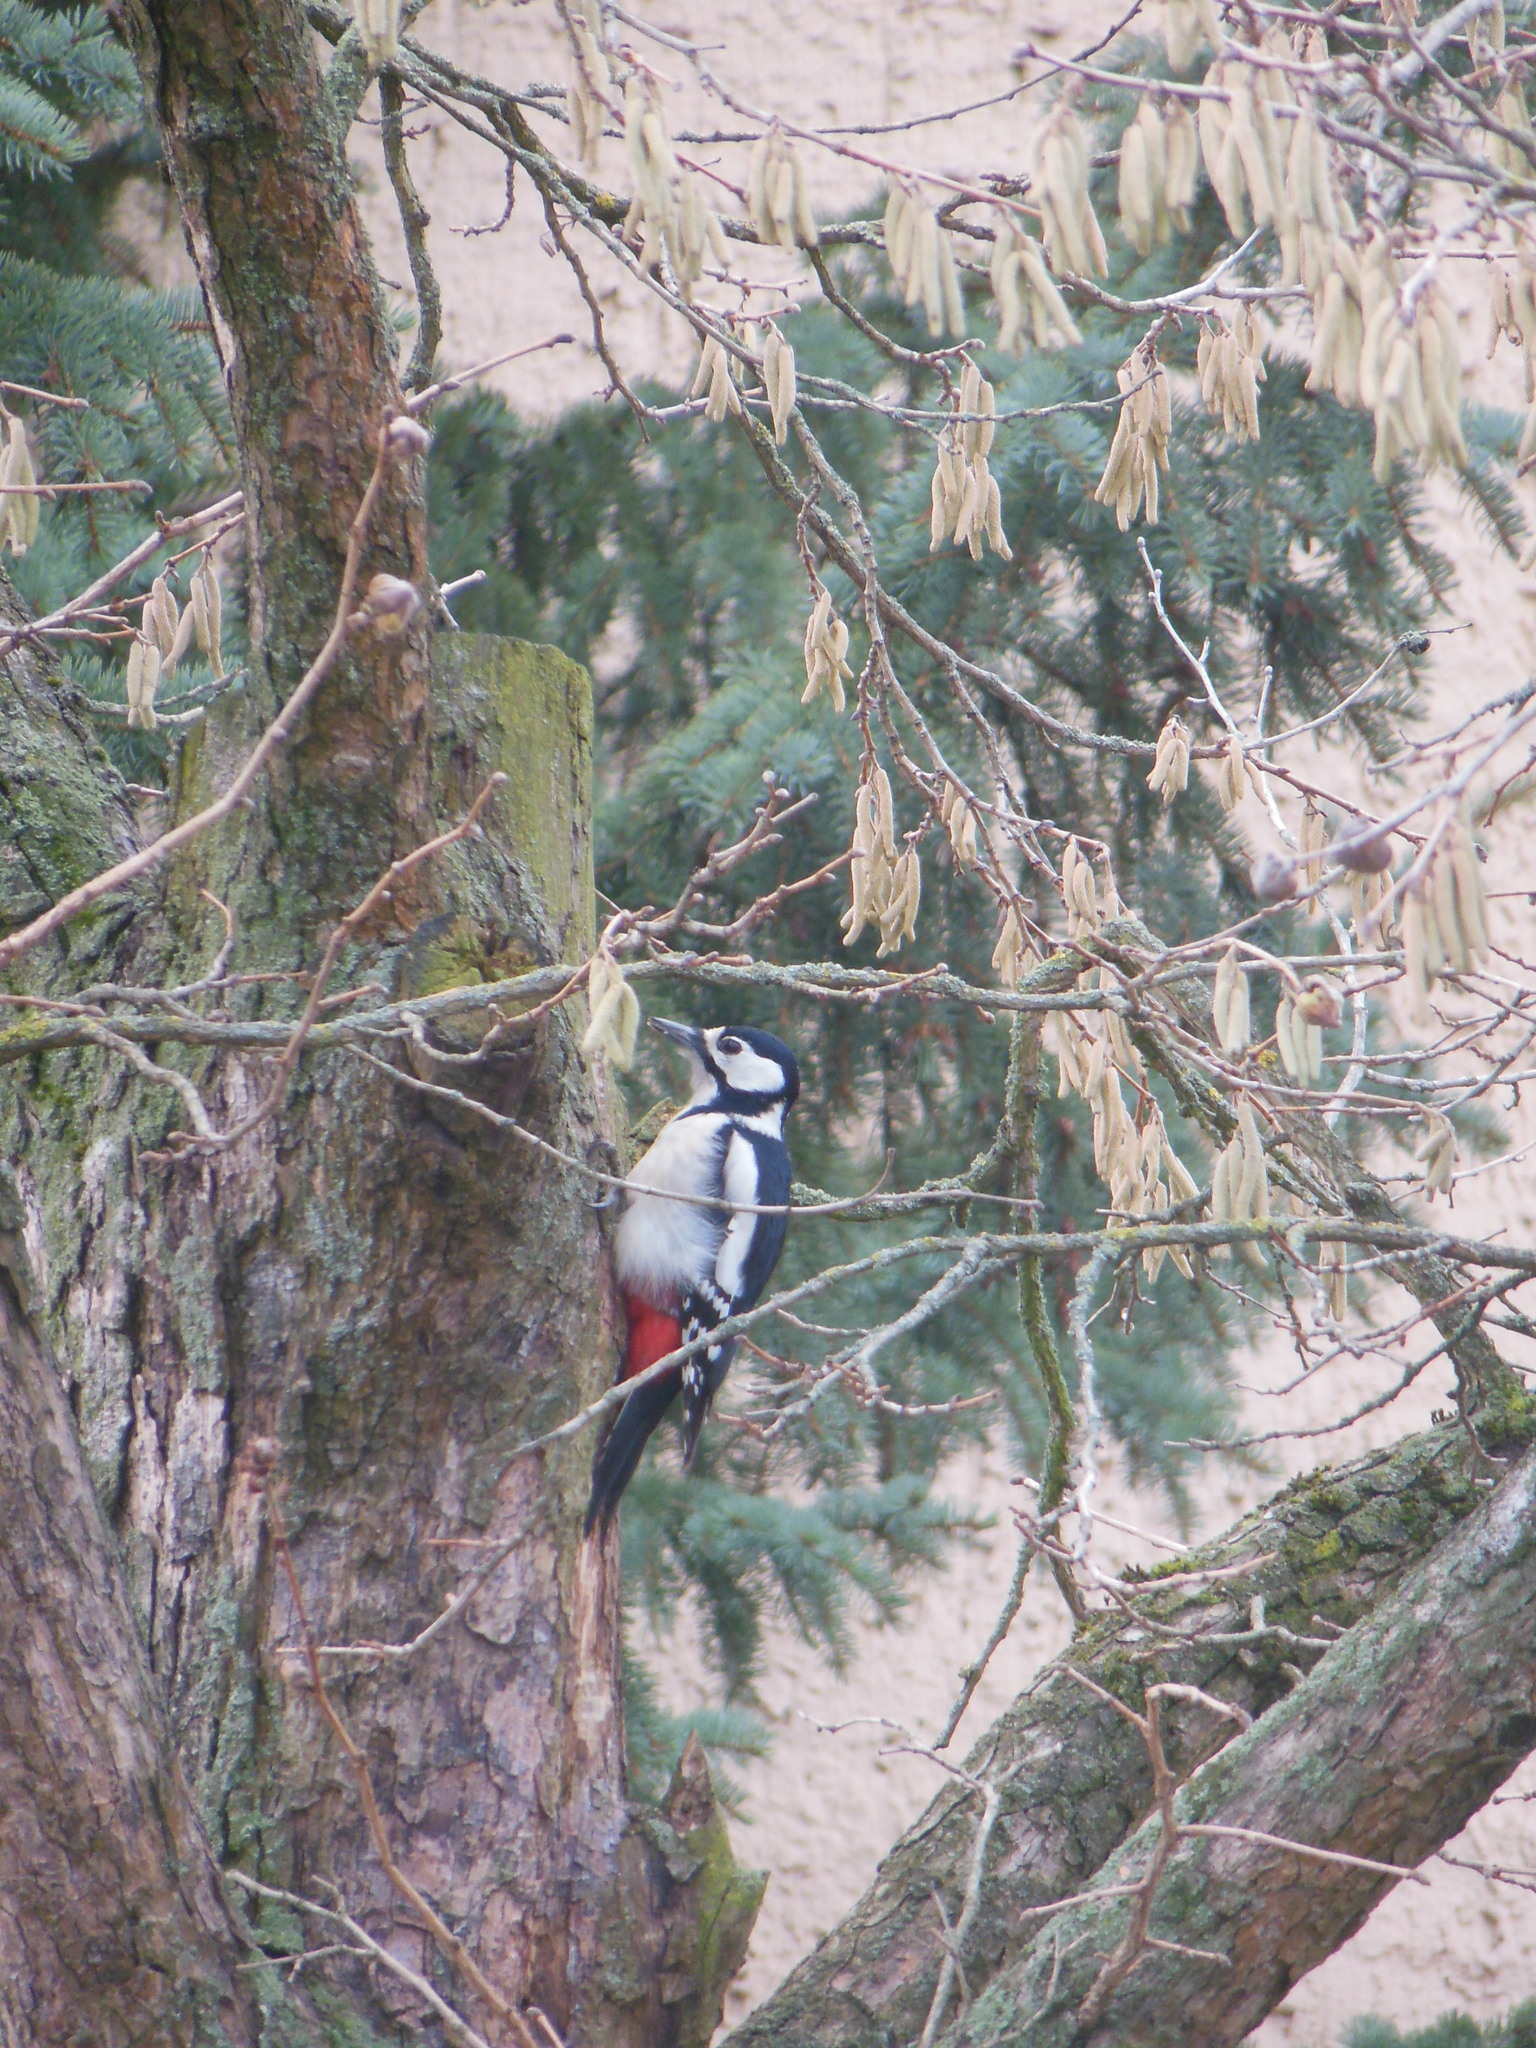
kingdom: Animalia
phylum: Chordata
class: Aves
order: Piciformes
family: Picidae
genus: Dendrocopos
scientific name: Dendrocopos major
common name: Great spotted woodpecker
